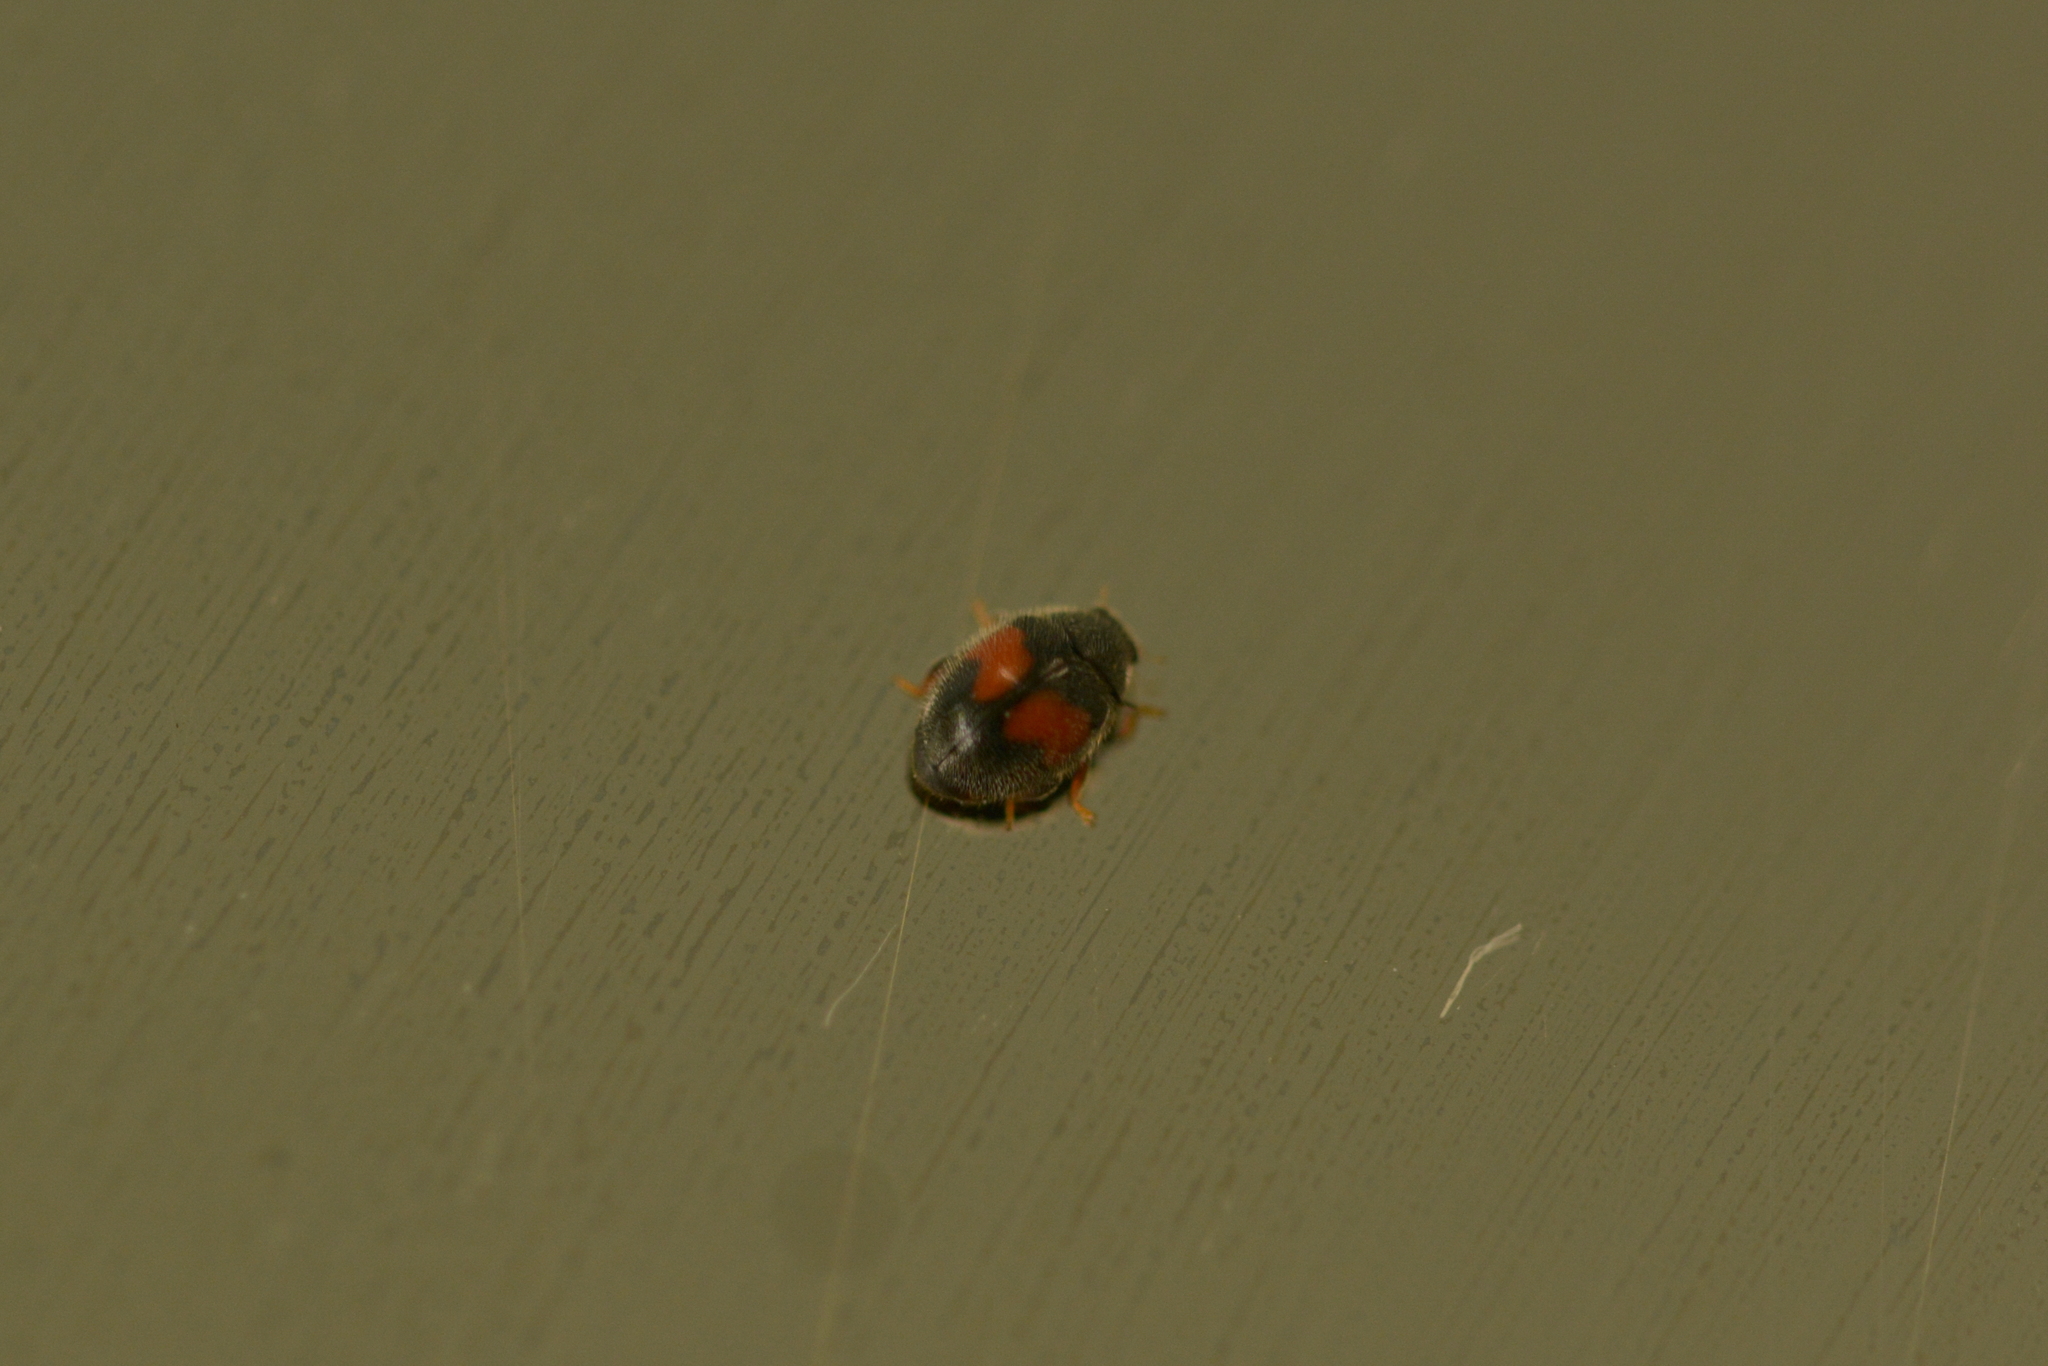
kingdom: Animalia
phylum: Arthropoda
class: Insecta
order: Coleoptera
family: Coccinellidae
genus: Scymnus
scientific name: Scymnus notescens
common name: Minute two-spotted ladybird beetle
